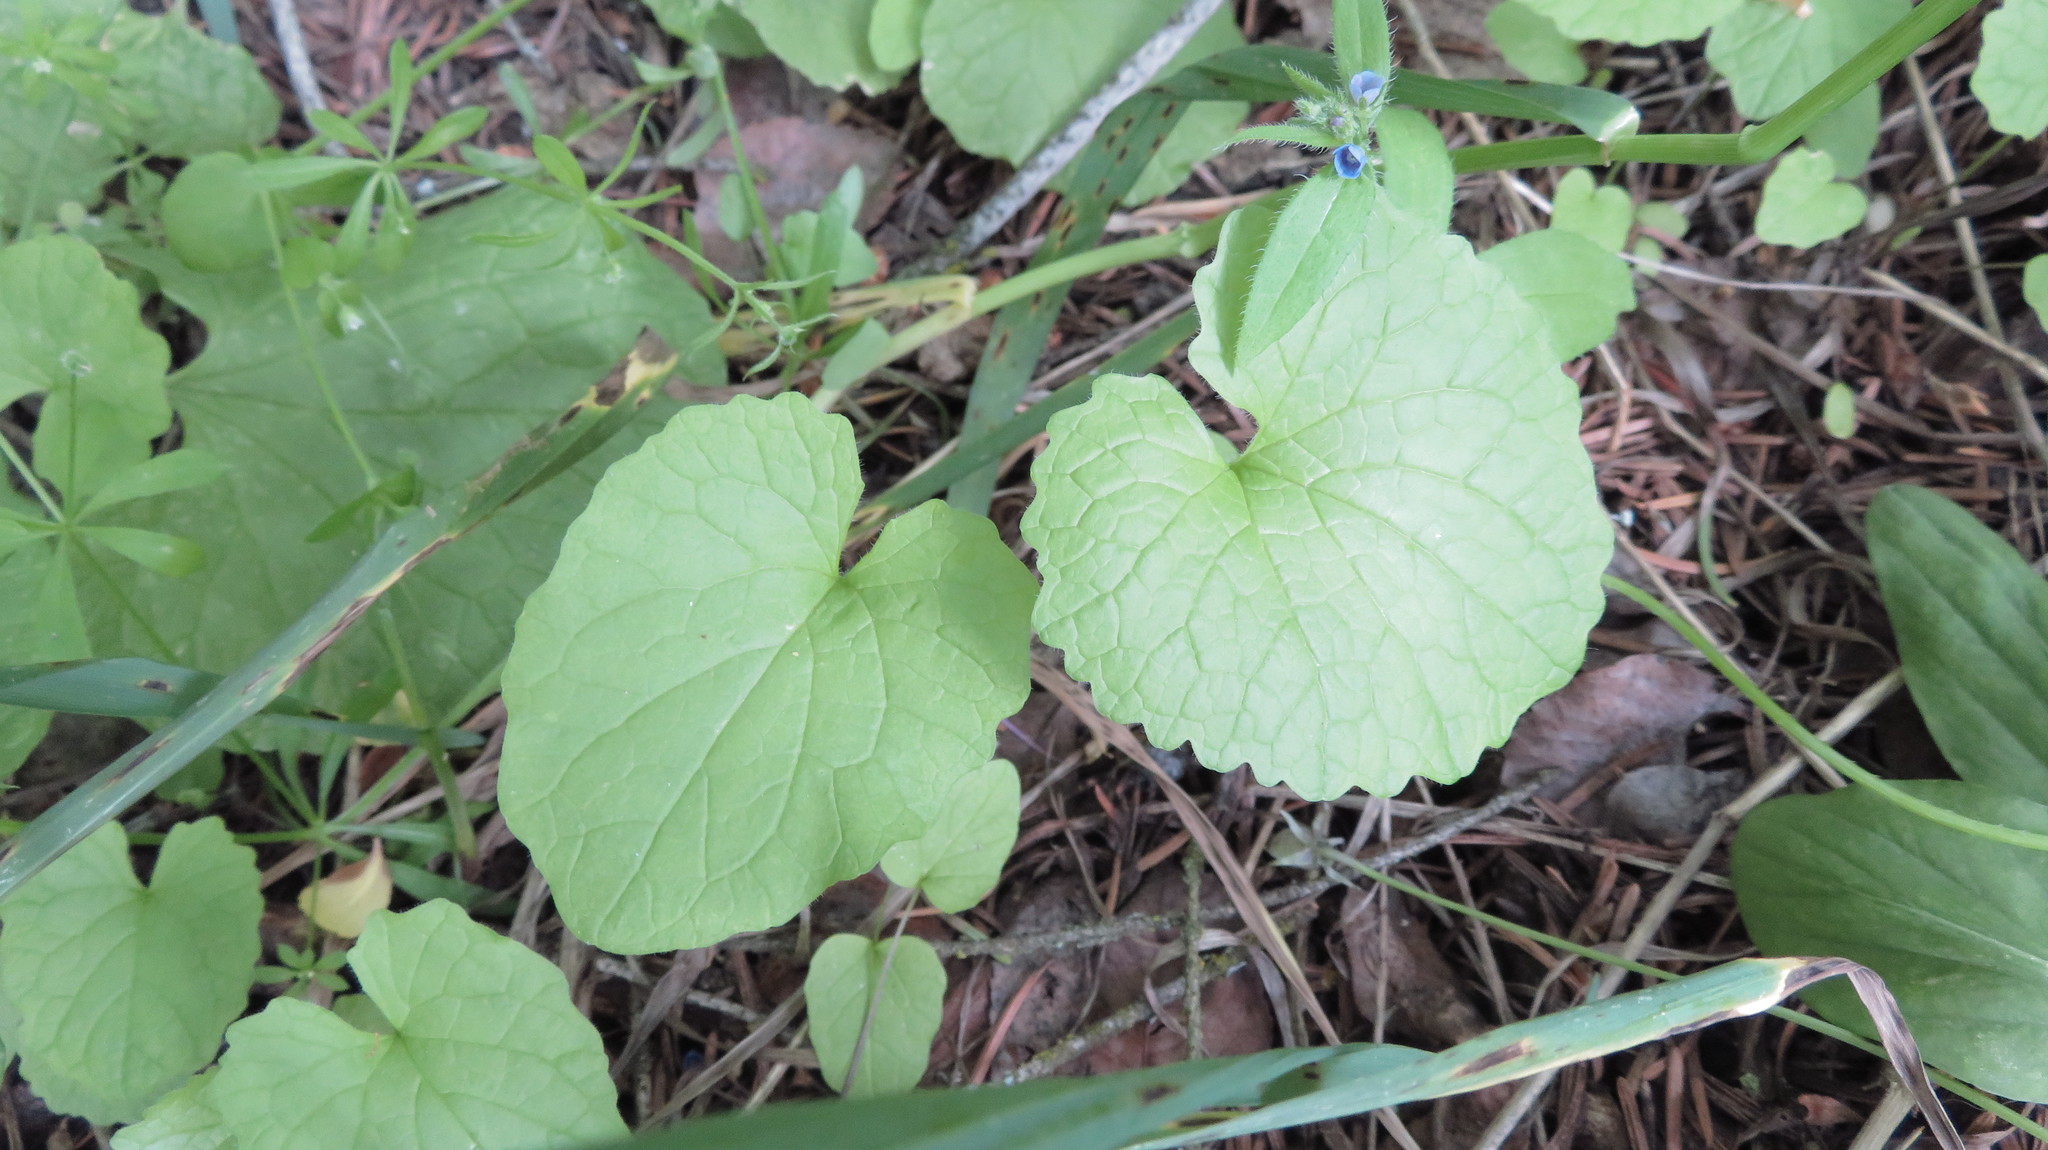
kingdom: Plantae
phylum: Tracheophyta
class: Magnoliopsida
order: Brassicales
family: Brassicaceae
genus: Alliaria
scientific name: Alliaria petiolata
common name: Garlic mustard
